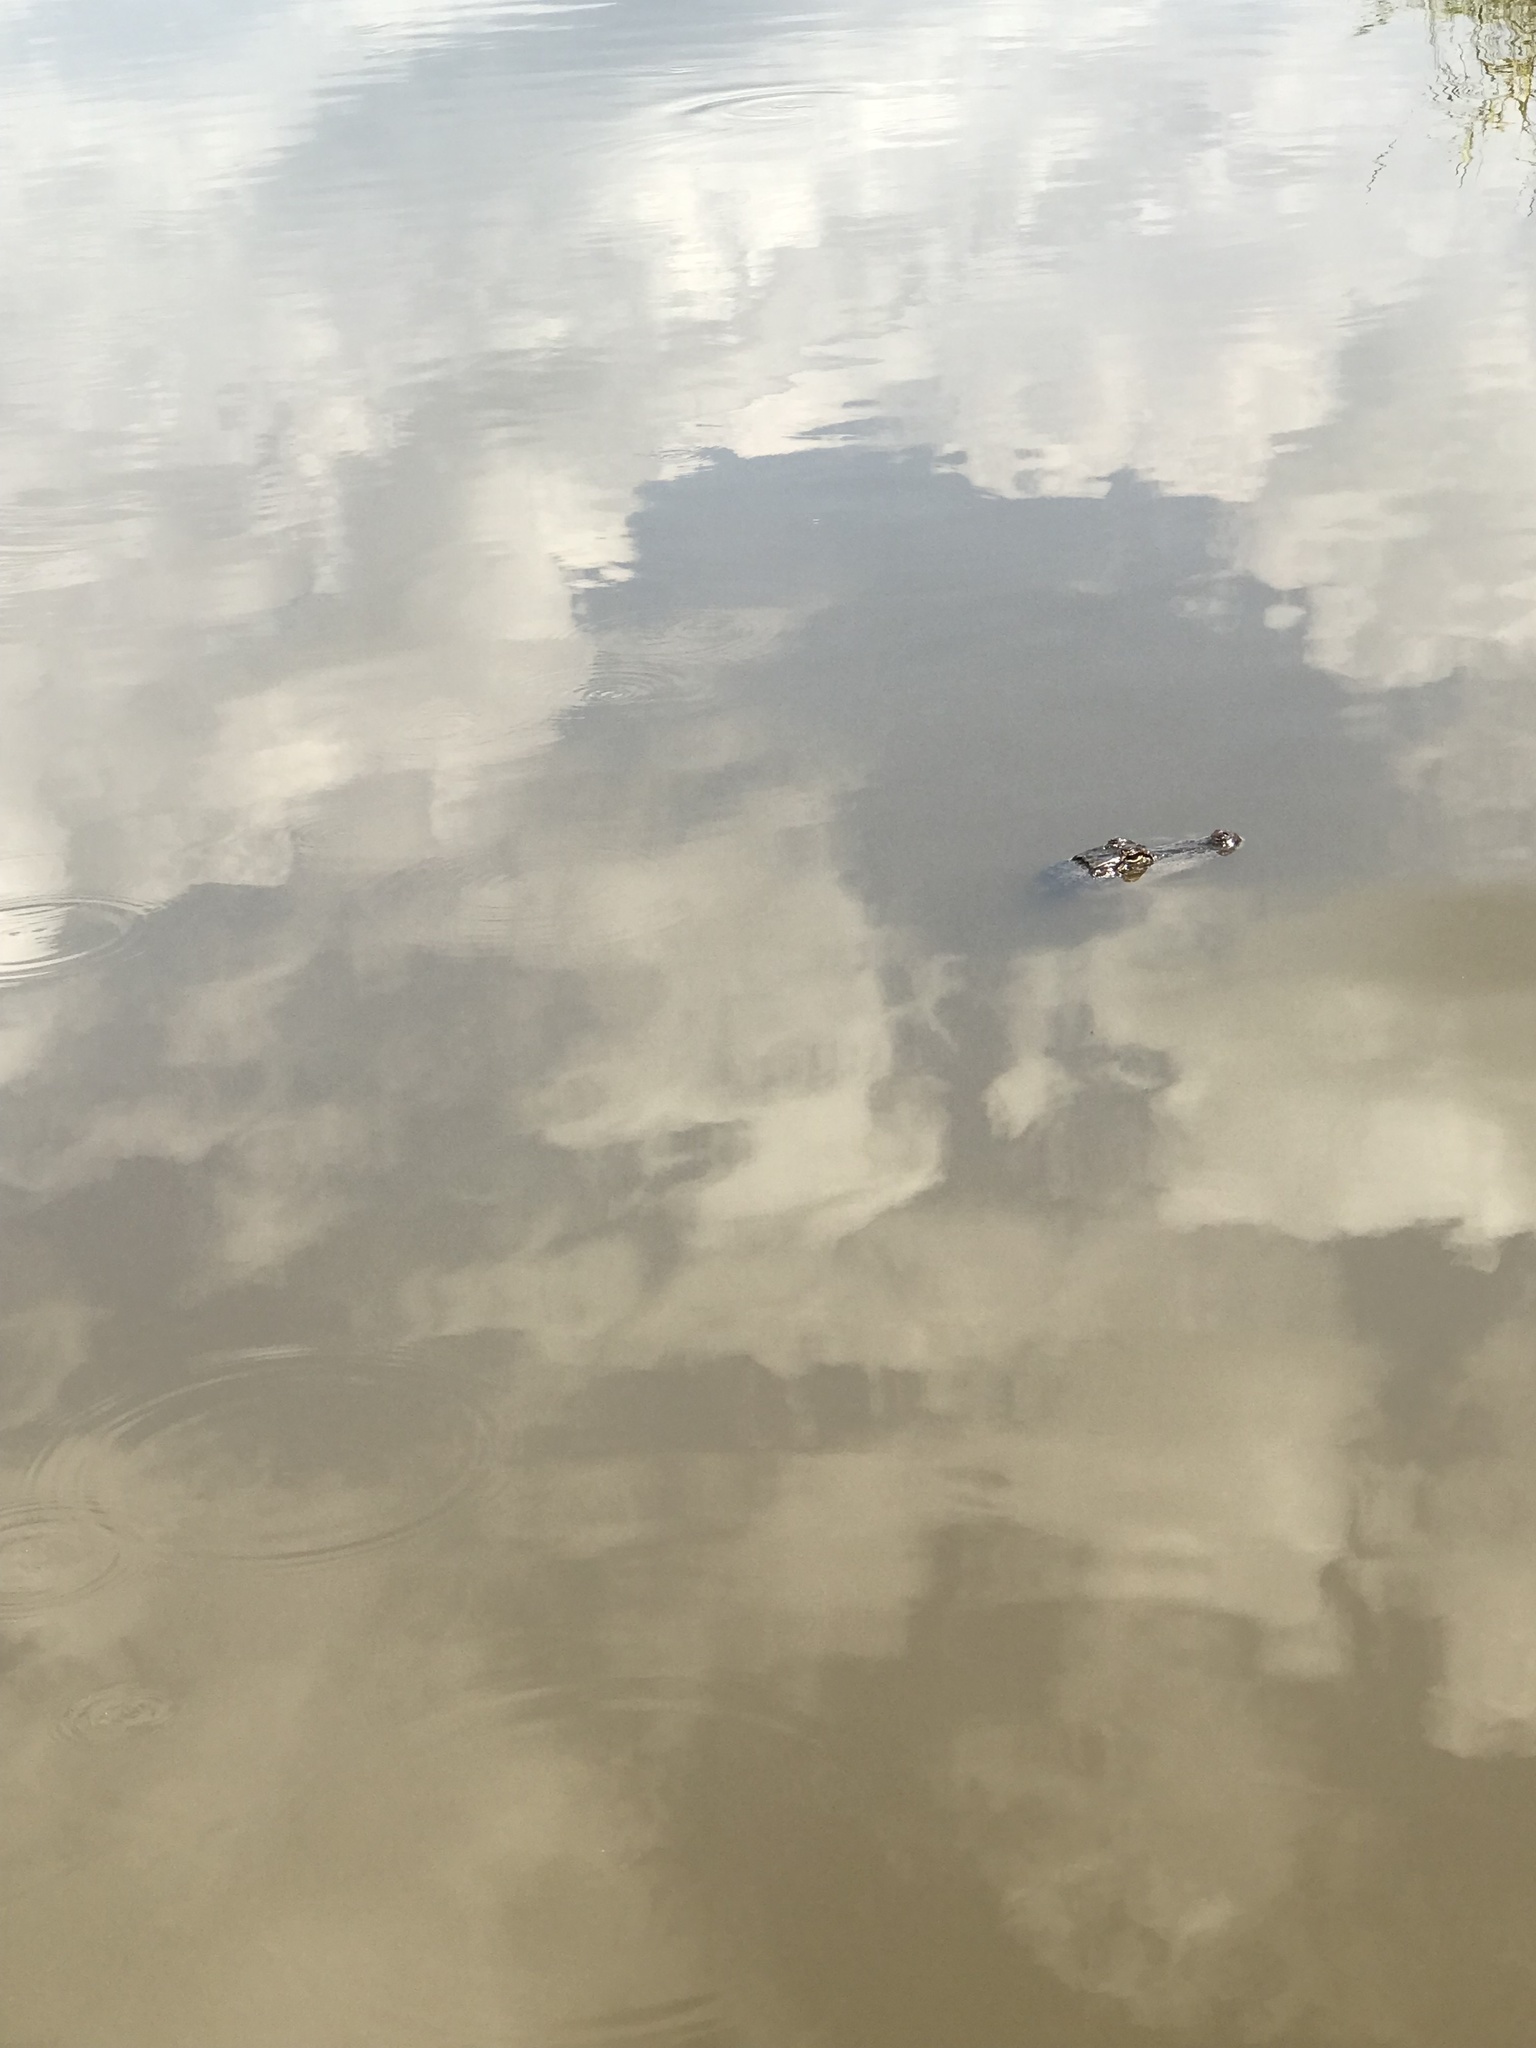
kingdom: Animalia
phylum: Chordata
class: Crocodylia
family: Alligatoridae
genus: Alligator
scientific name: Alligator mississippiensis
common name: American alligator
